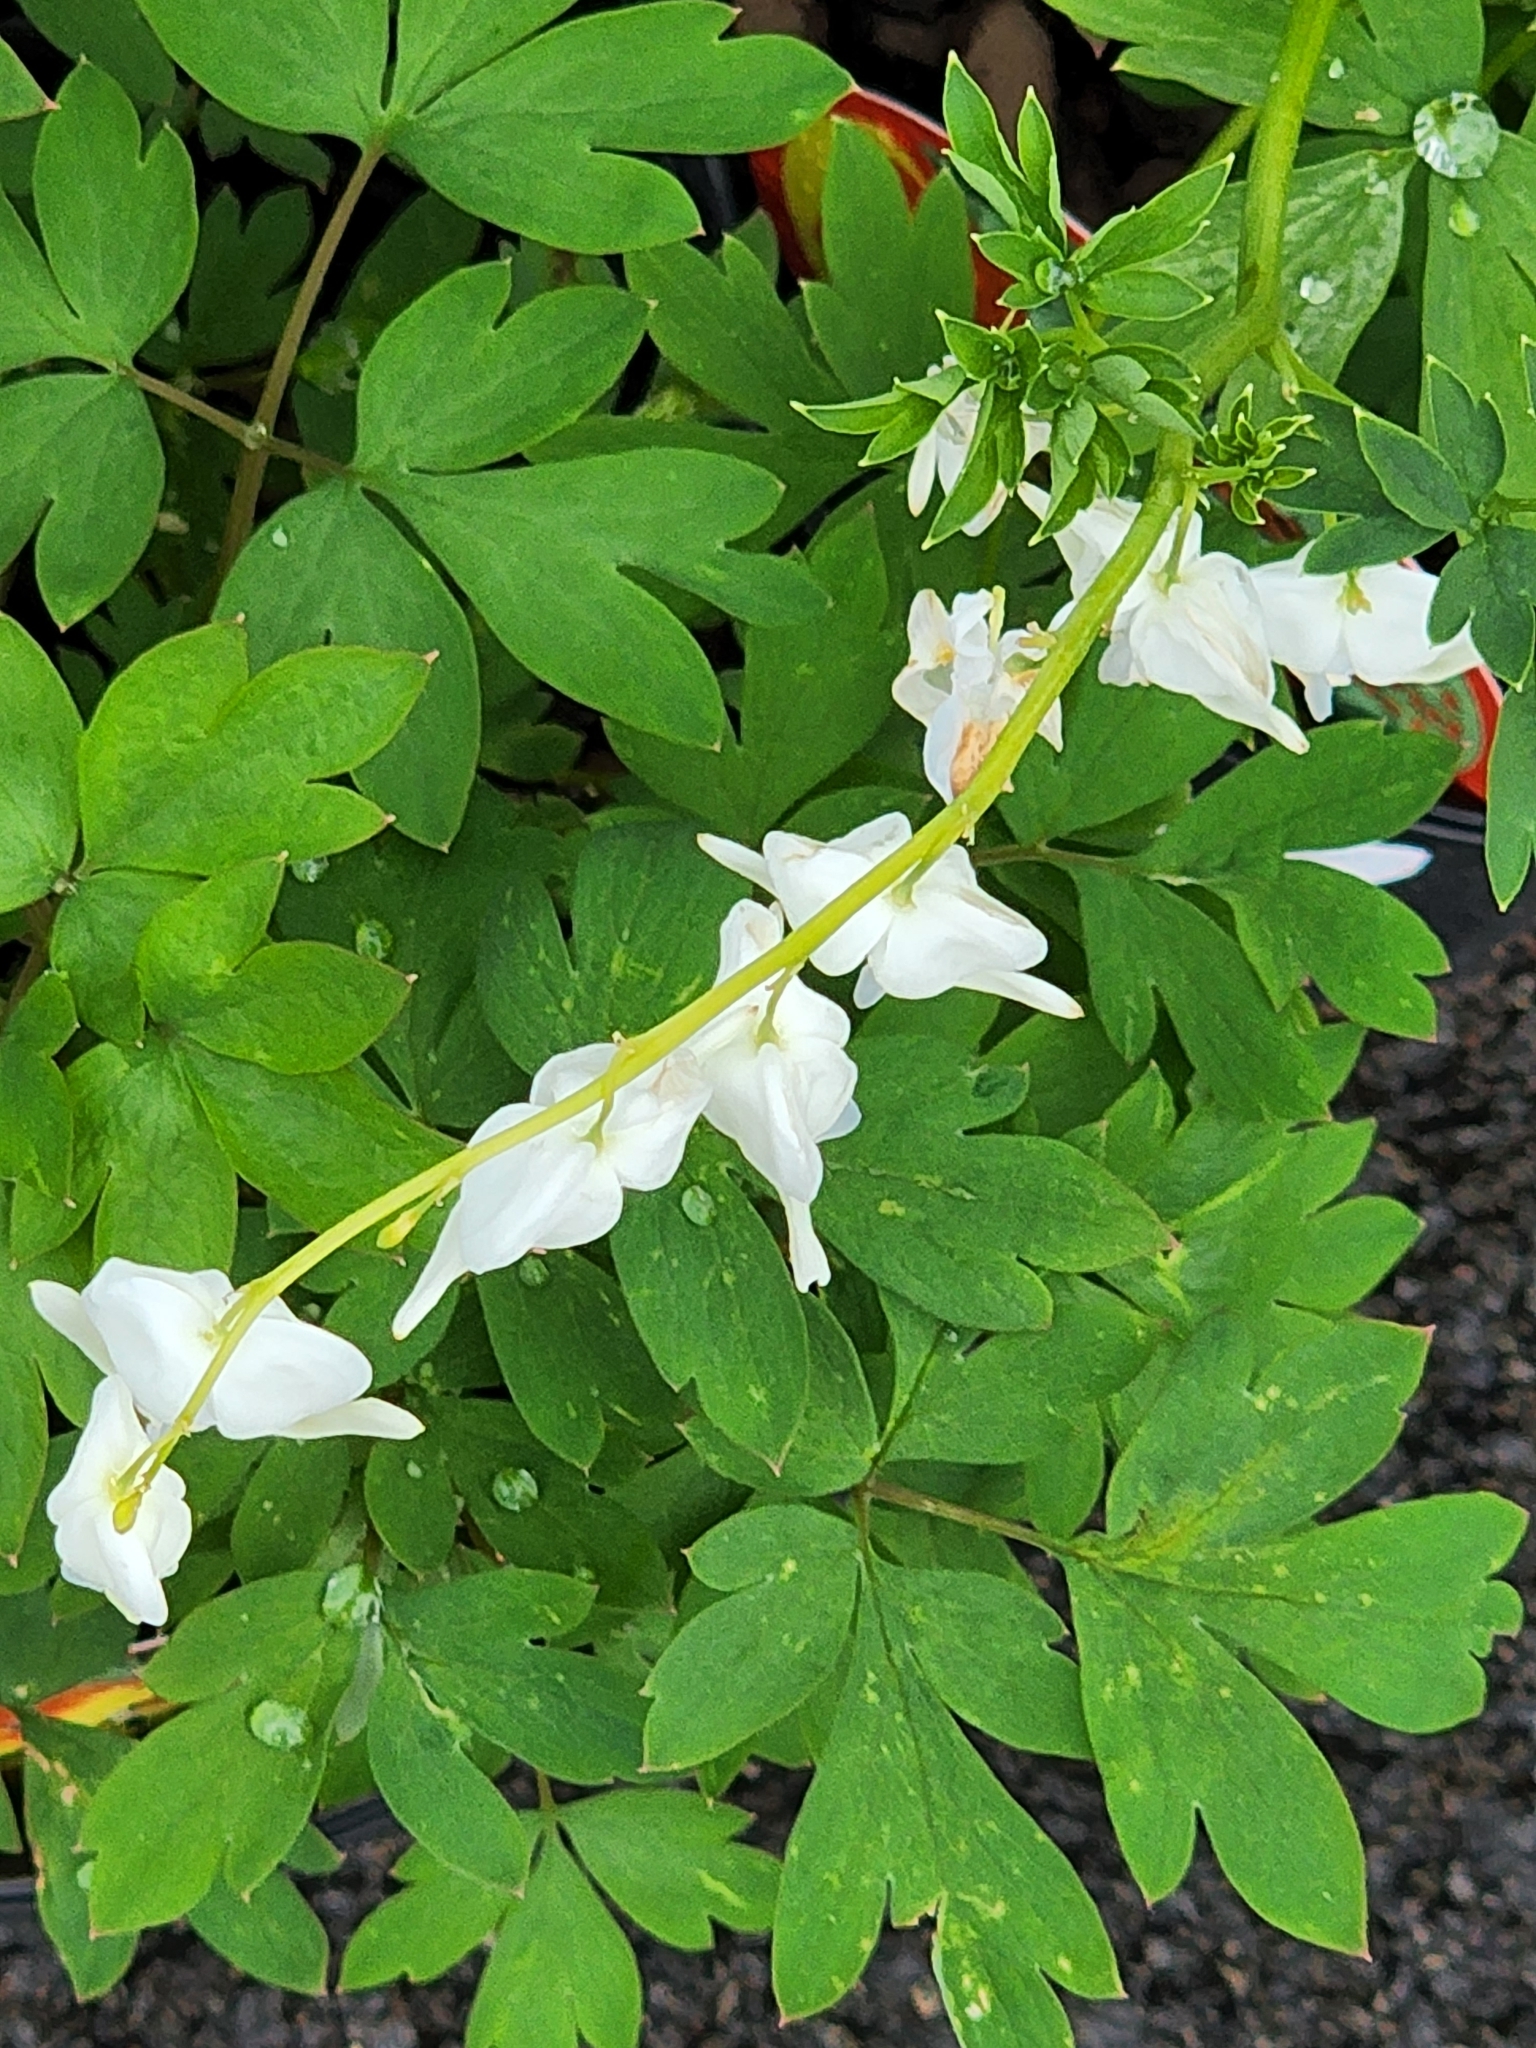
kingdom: Plantae
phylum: Tracheophyta
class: Magnoliopsida
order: Ranunculales
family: Papaveraceae
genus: Lamprocapnos
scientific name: Lamprocapnos spectabilis
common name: Asian bleeding-heart
